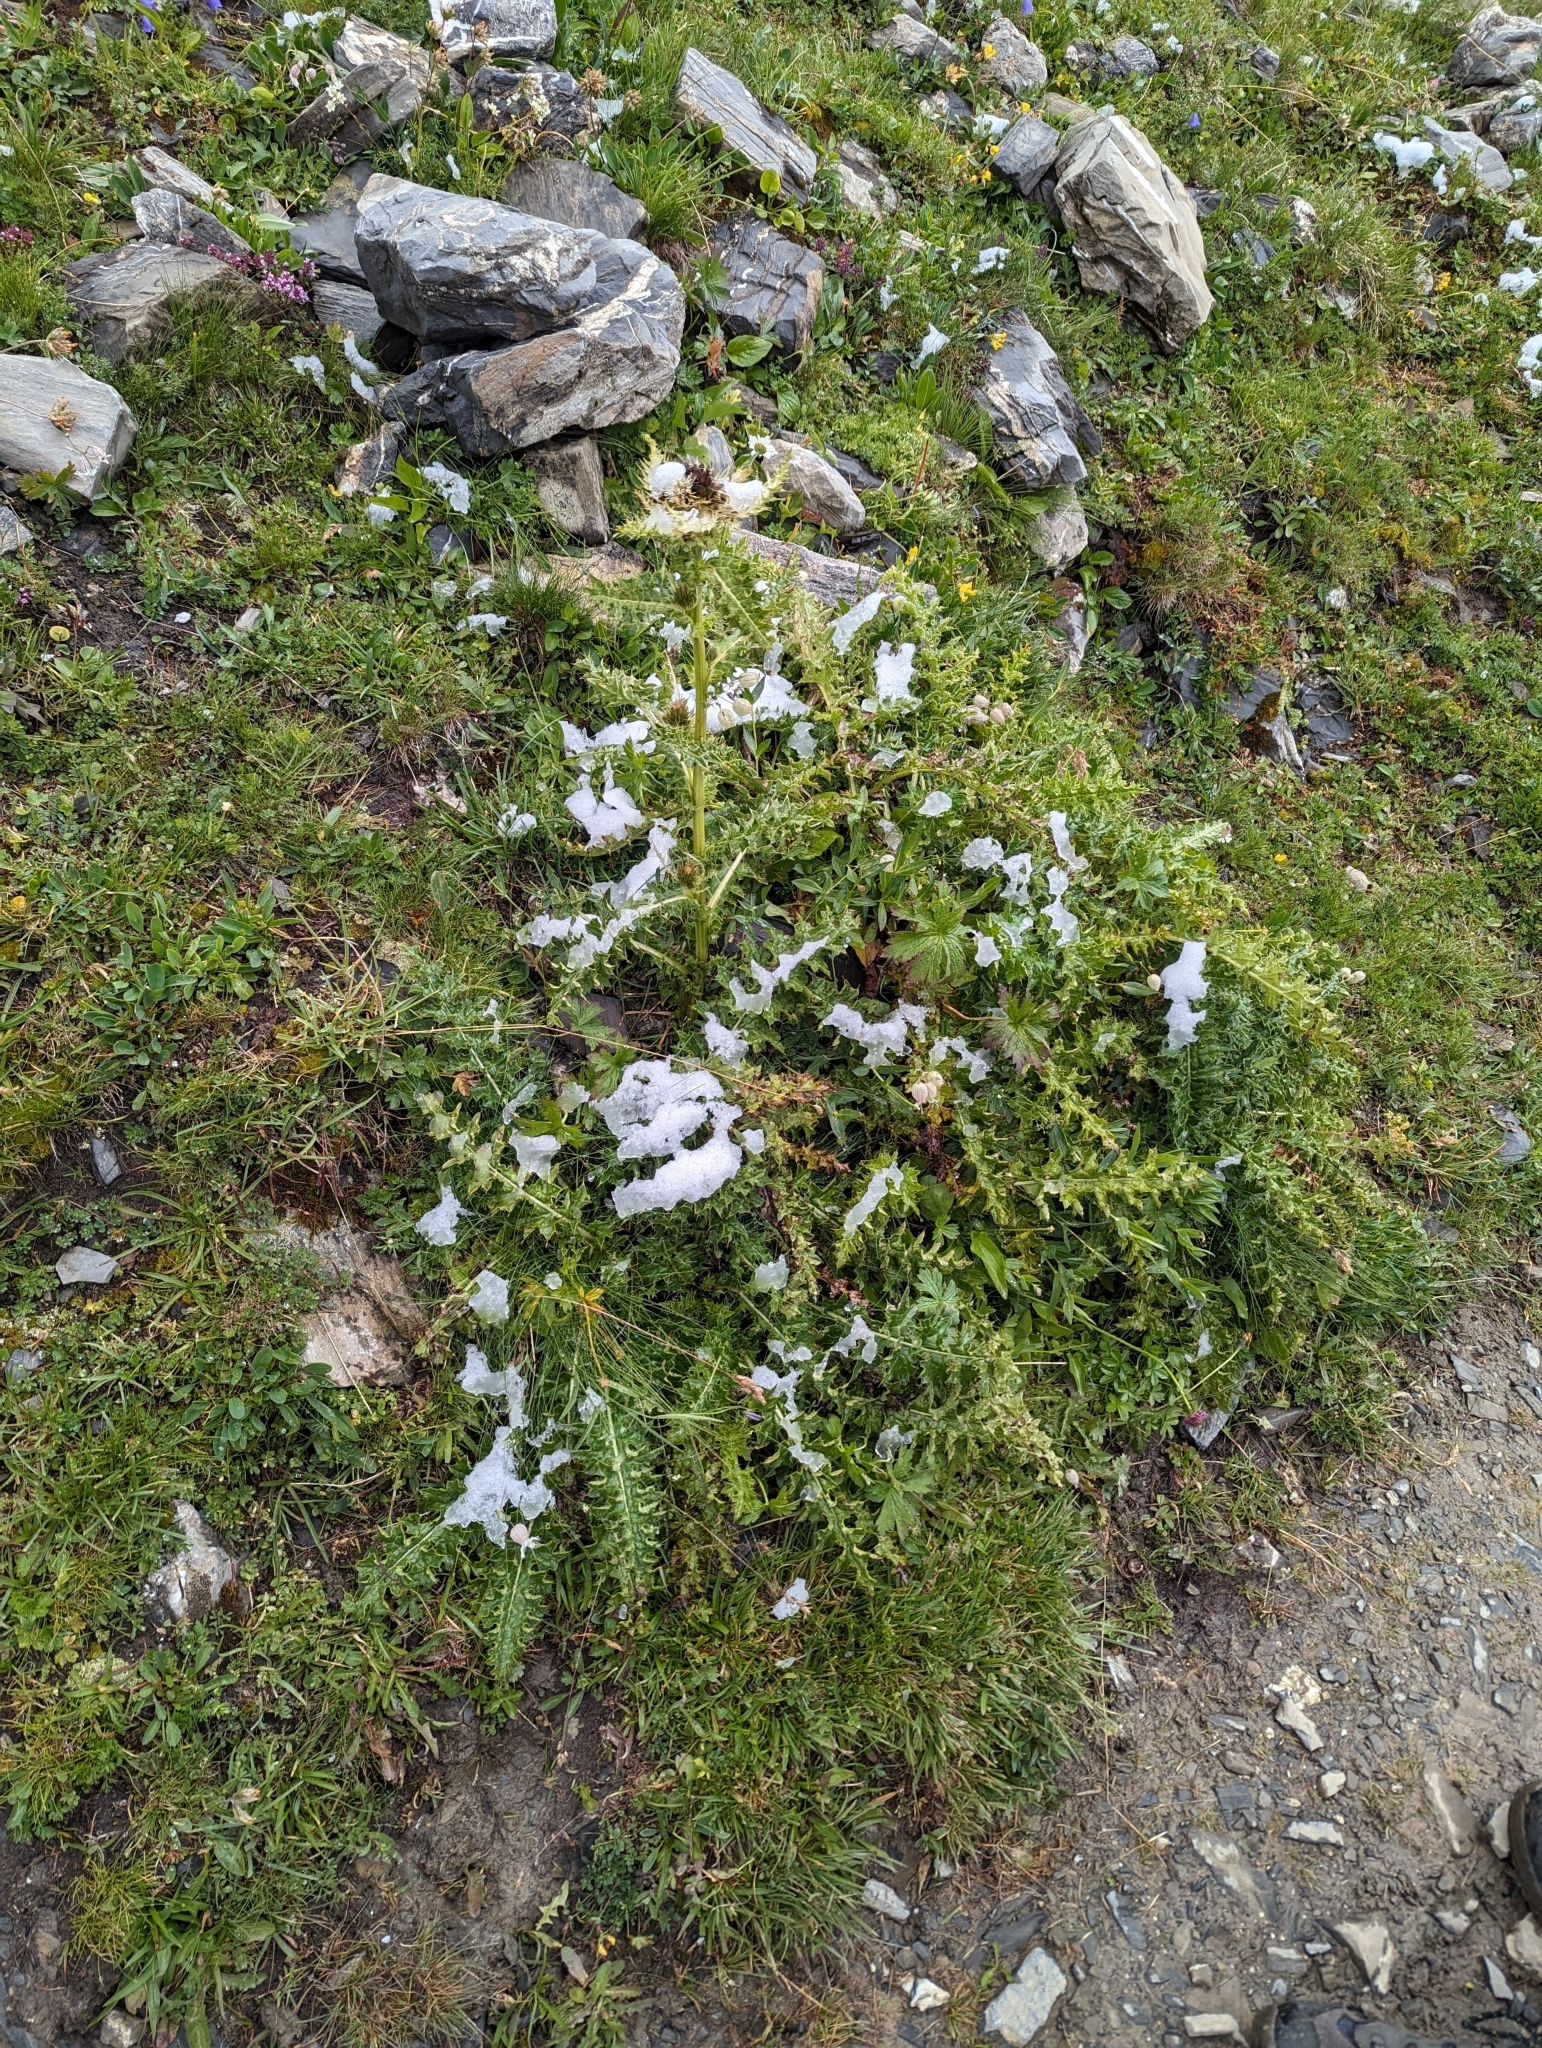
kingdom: Plantae
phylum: Tracheophyta
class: Magnoliopsida
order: Asterales
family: Asteraceae
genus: Cirsium
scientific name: Cirsium spinosissimum
